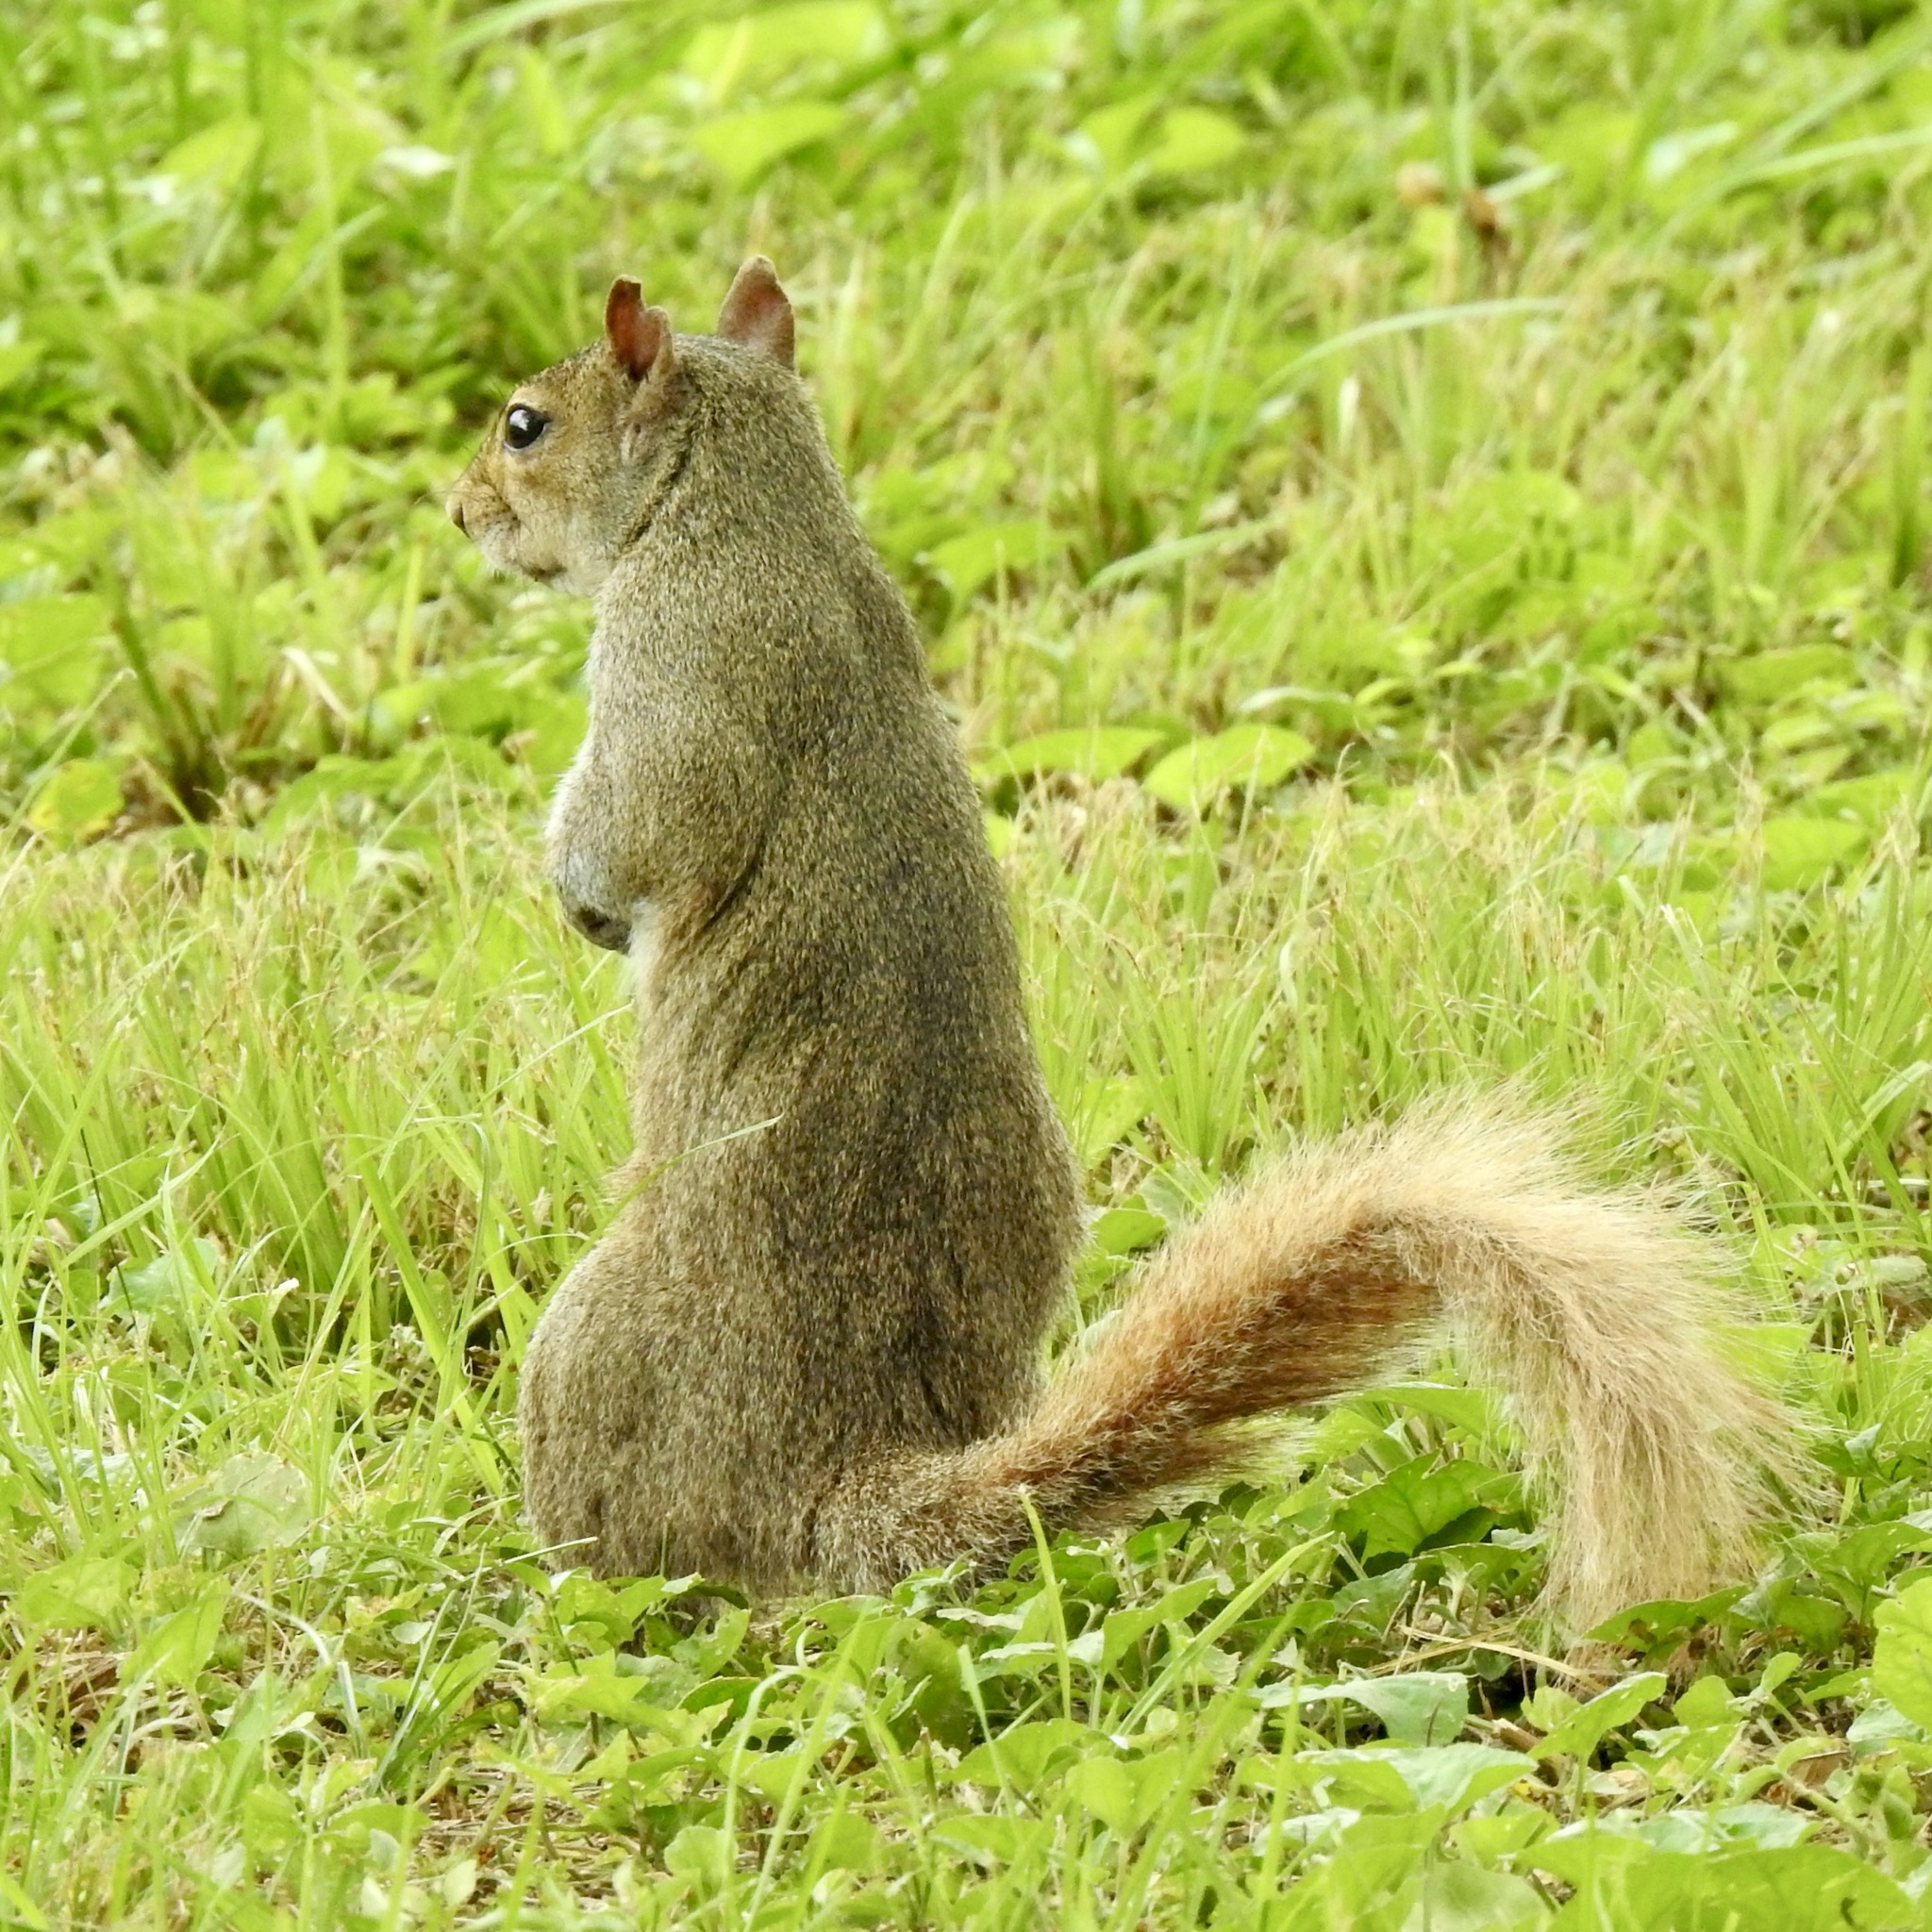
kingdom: Animalia
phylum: Chordata
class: Mammalia
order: Rodentia
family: Sciuridae
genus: Sciurus
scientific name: Sciurus carolinensis
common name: Eastern gray squirrel
